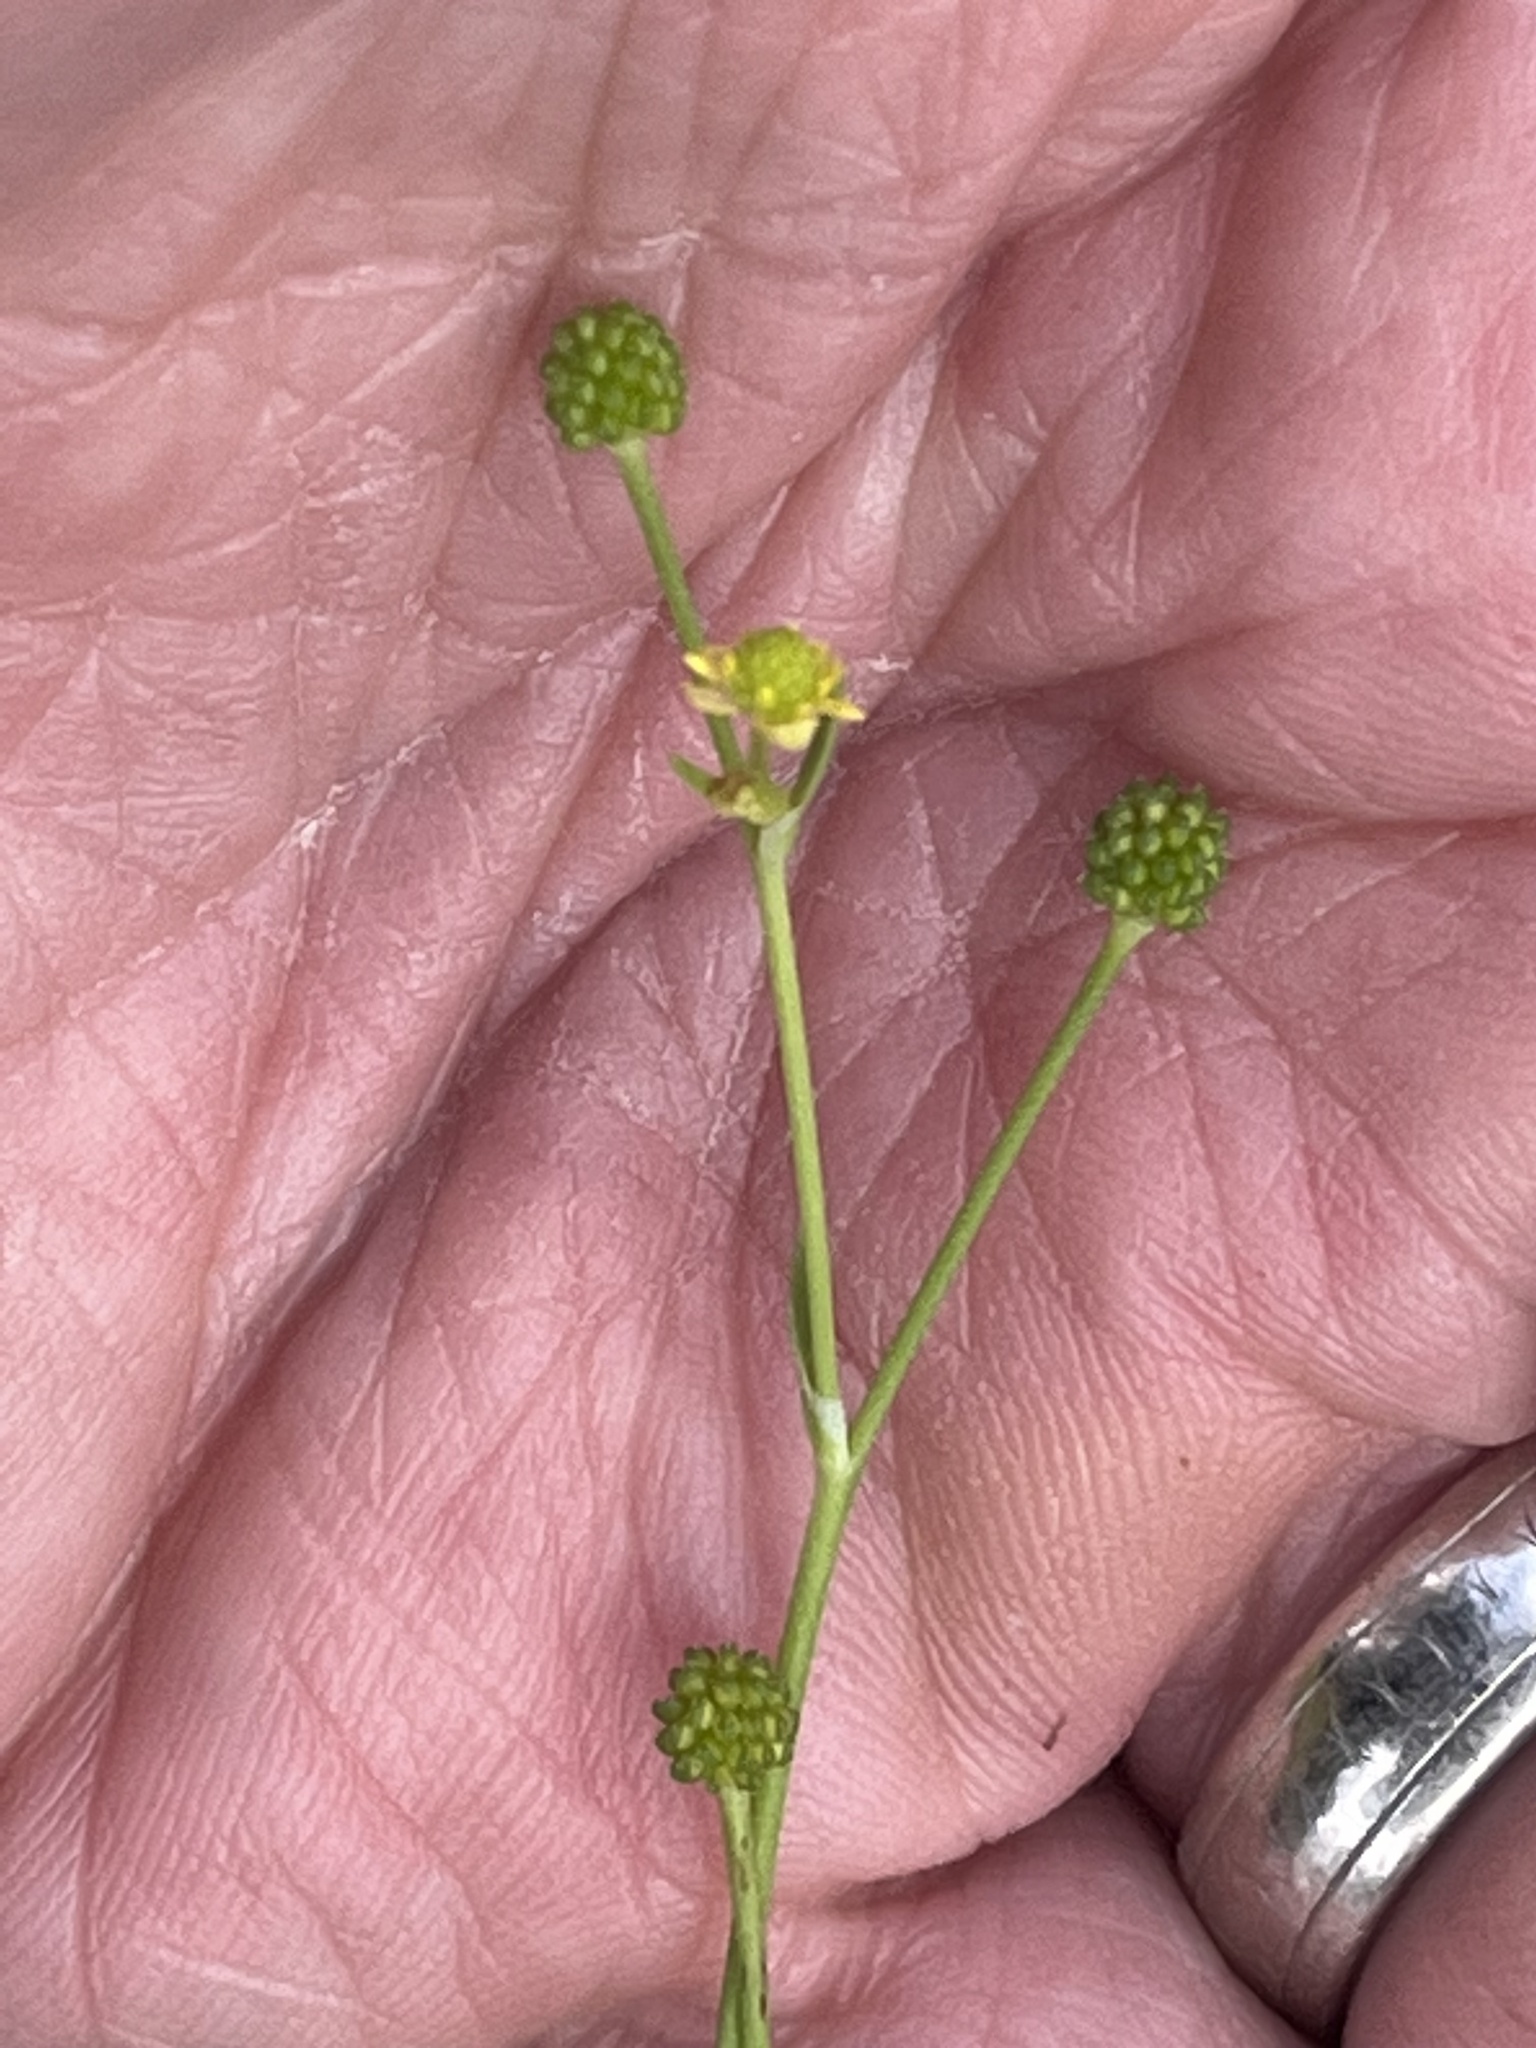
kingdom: Plantae
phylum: Tracheophyta
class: Magnoliopsida
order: Ranunculales
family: Ranunculaceae
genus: Ranunculus
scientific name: Ranunculus pusillus
